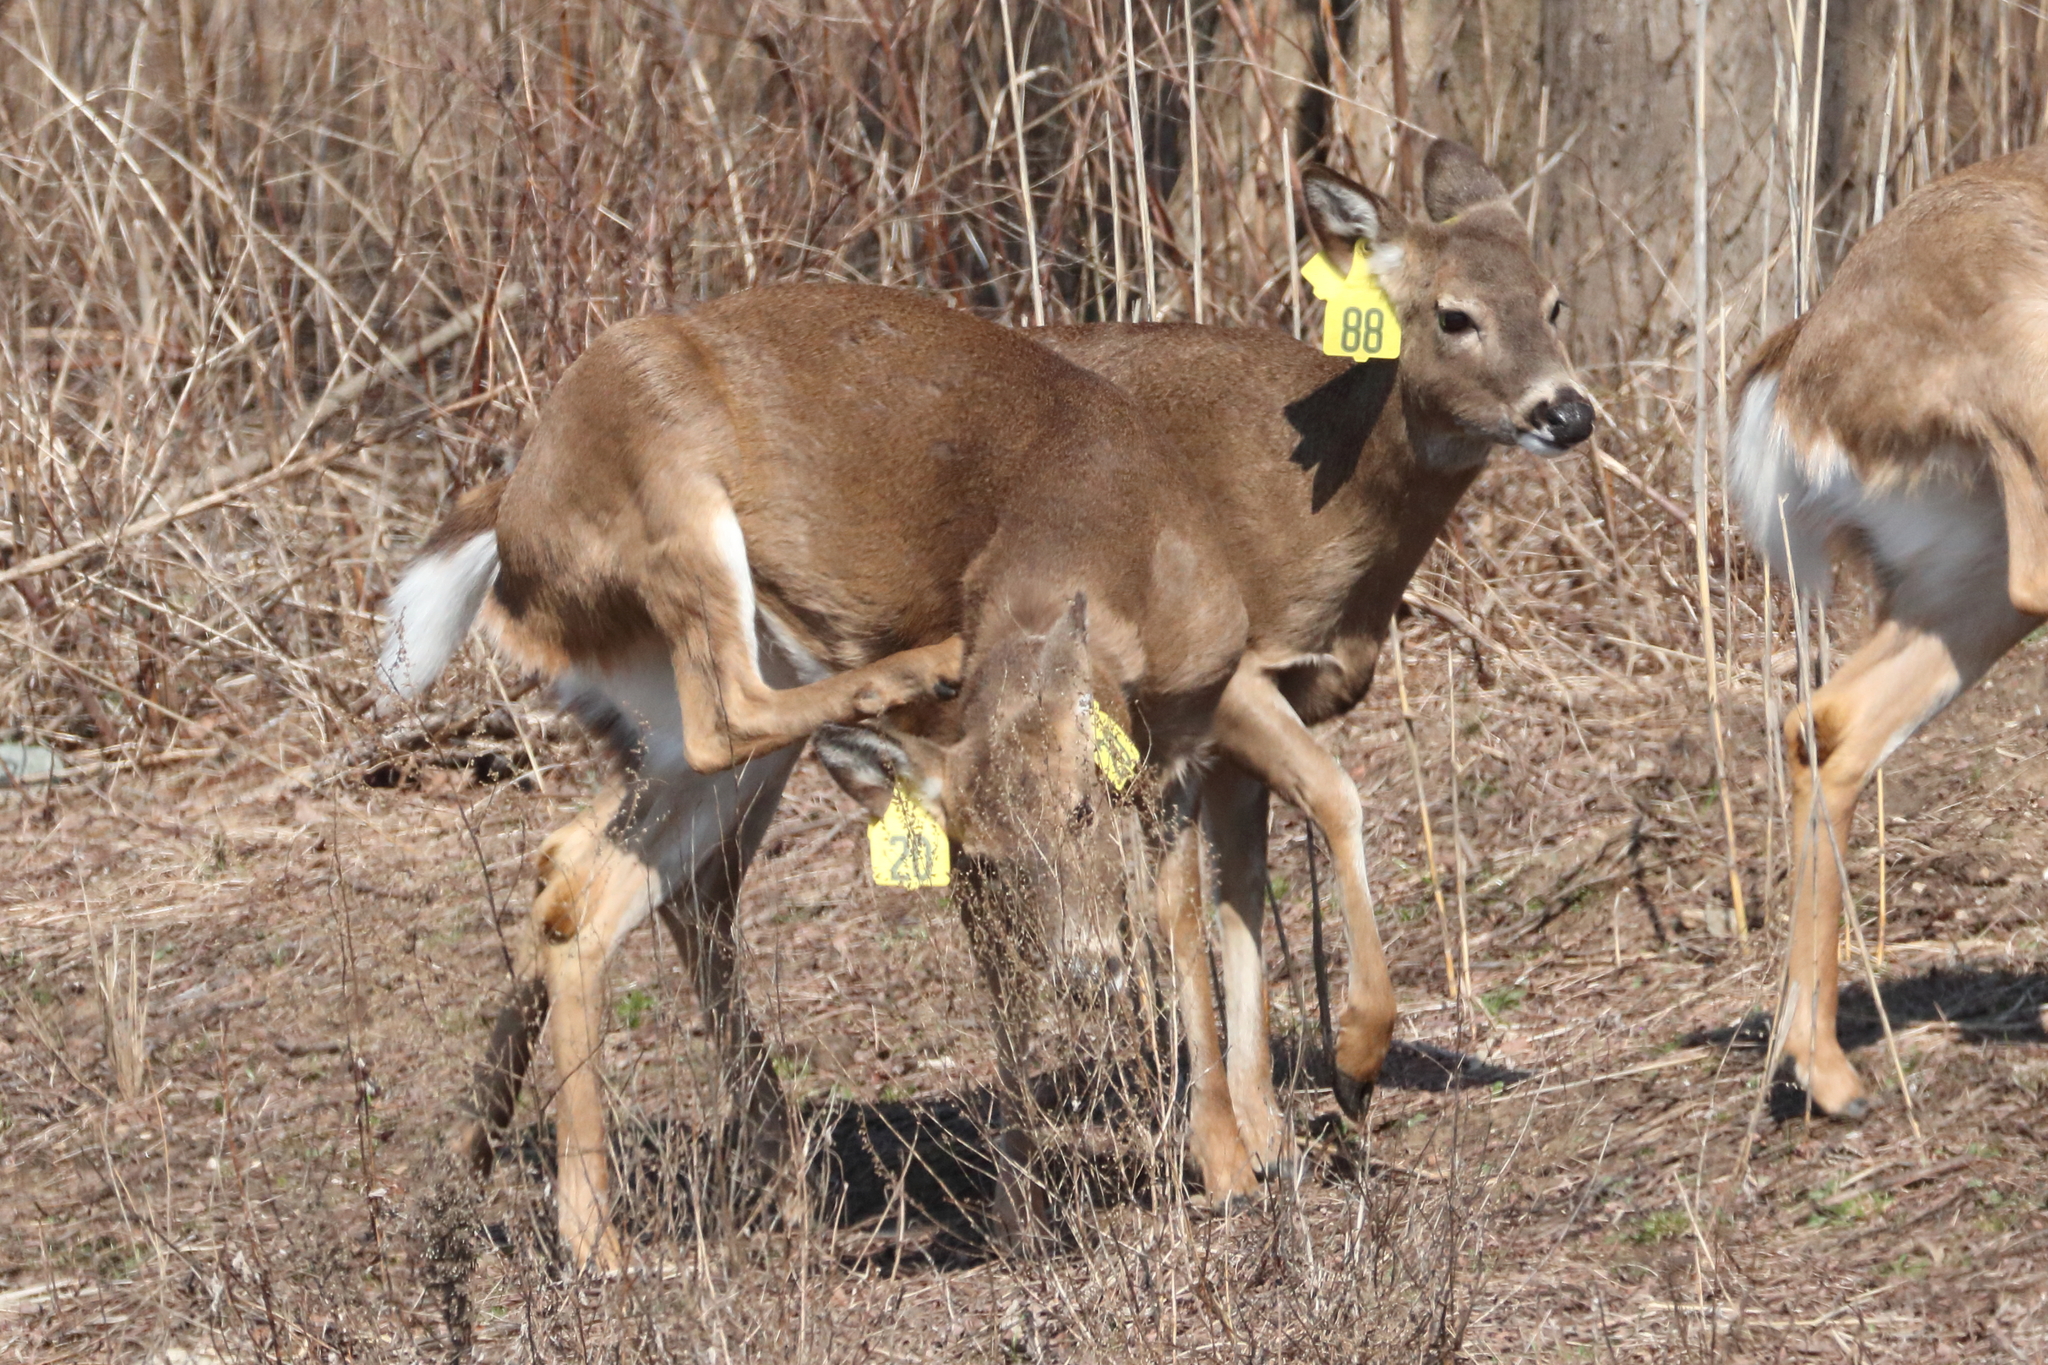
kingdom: Animalia
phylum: Chordata
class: Mammalia
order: Artiodactyla
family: Cervidae
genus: Odocoileus
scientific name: Odocoileus virginianus
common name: White-tailed deer
